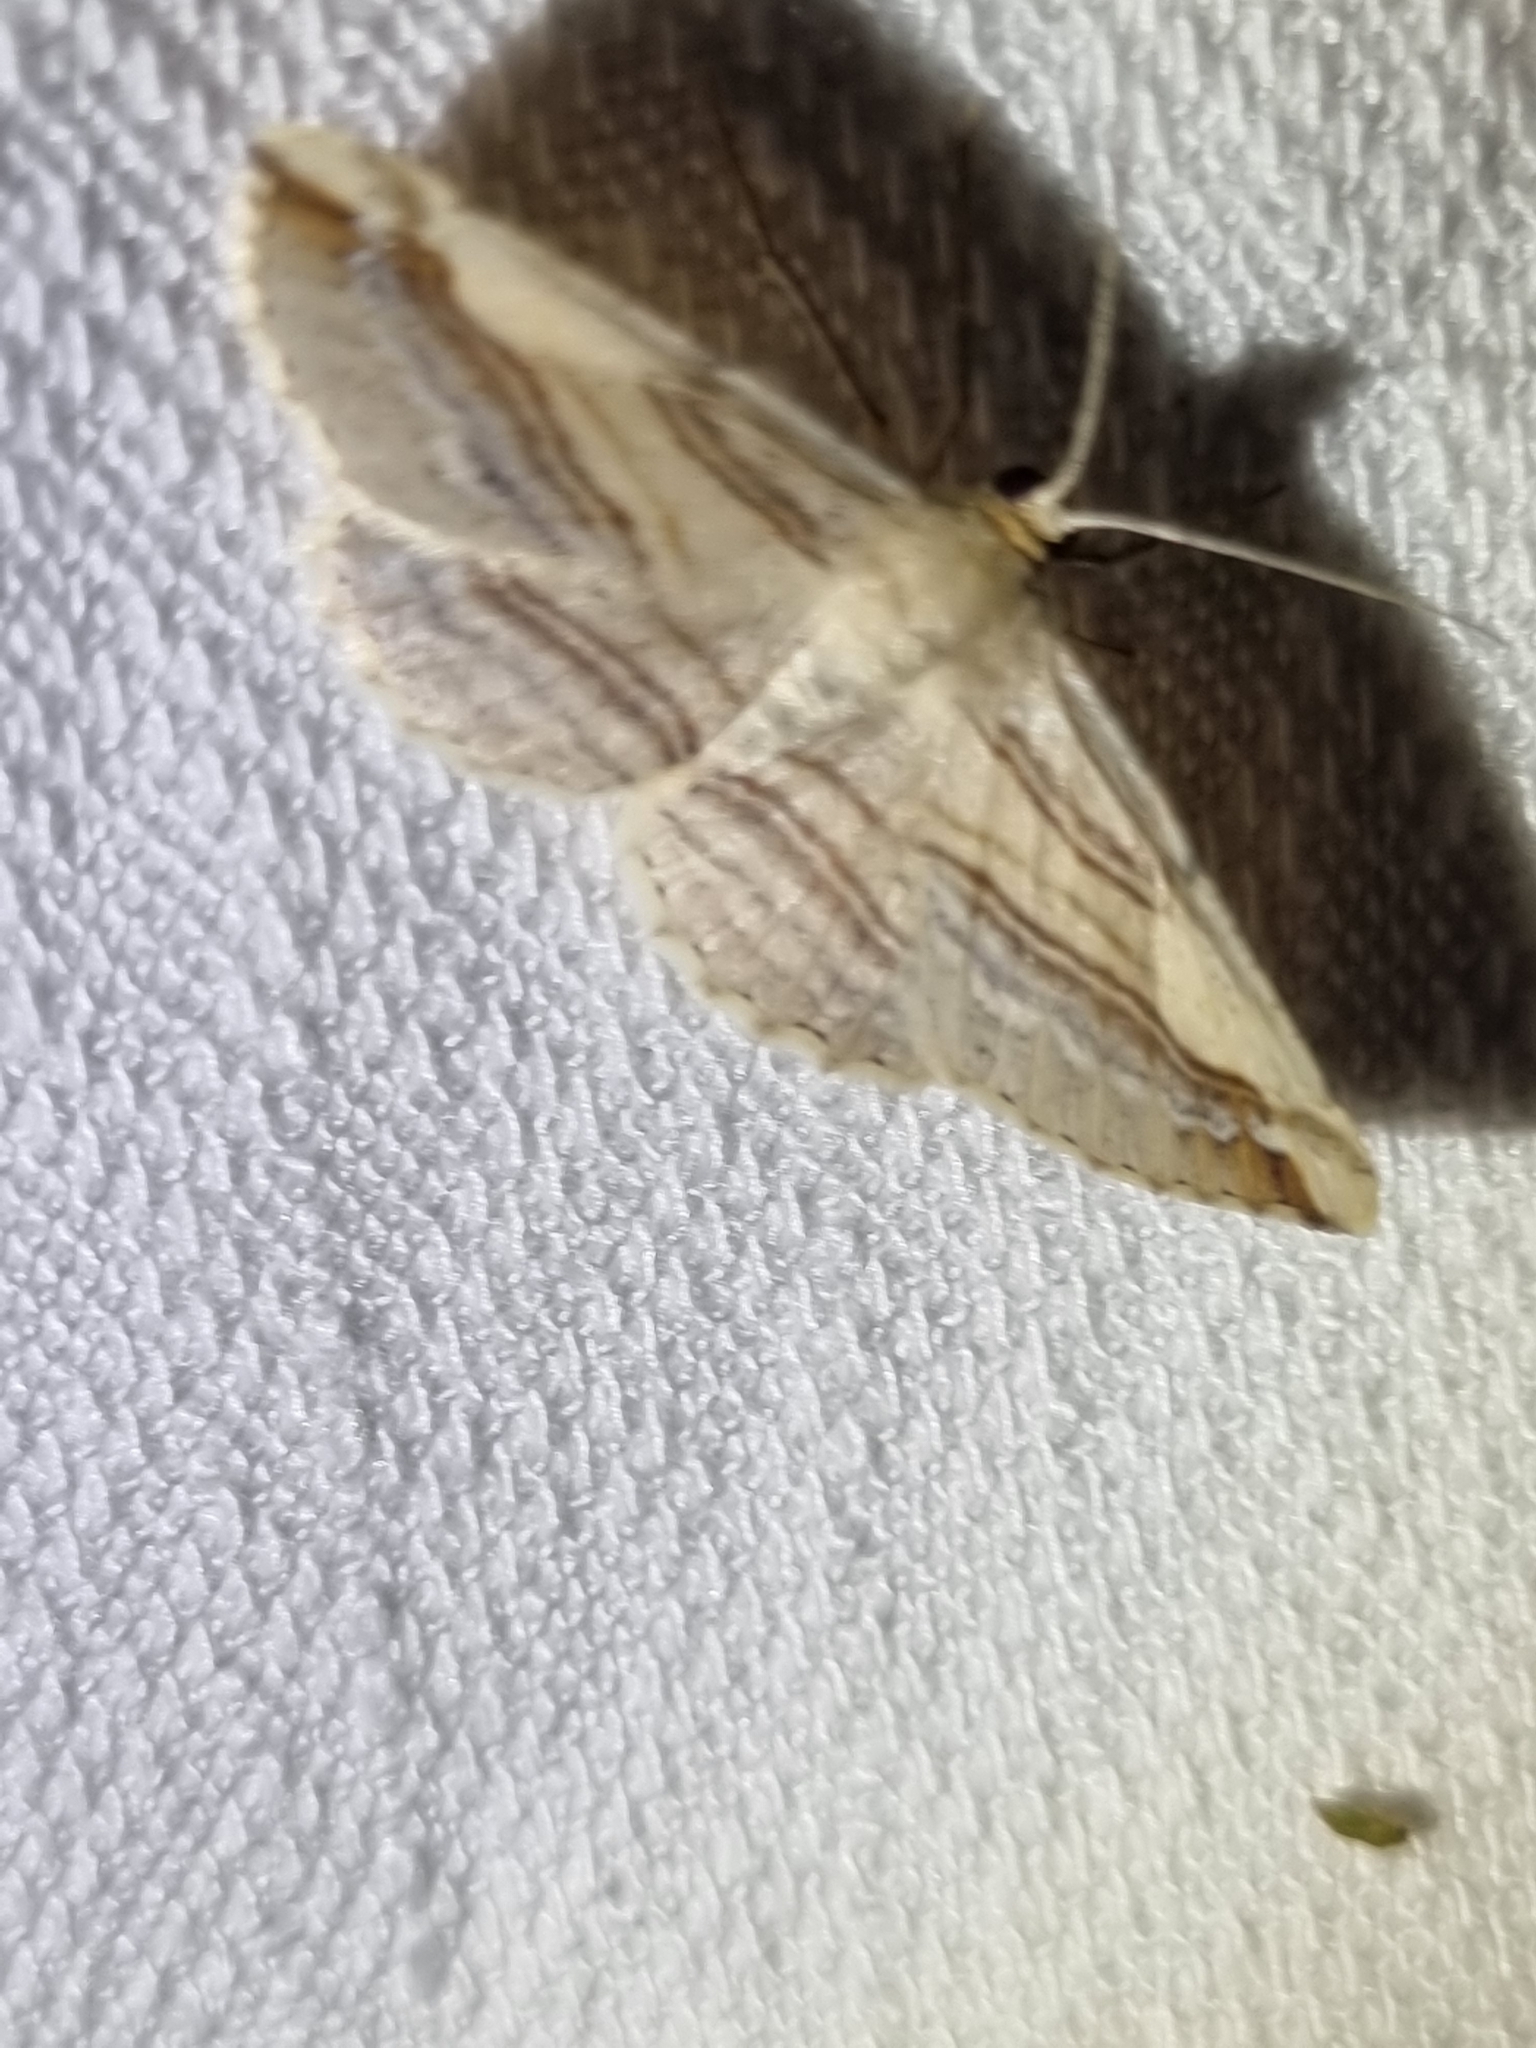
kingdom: Animalia
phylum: Arthropoda
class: Insecta
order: Lepidoptera
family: Geometridae
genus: Syneora
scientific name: Syneora lithina
